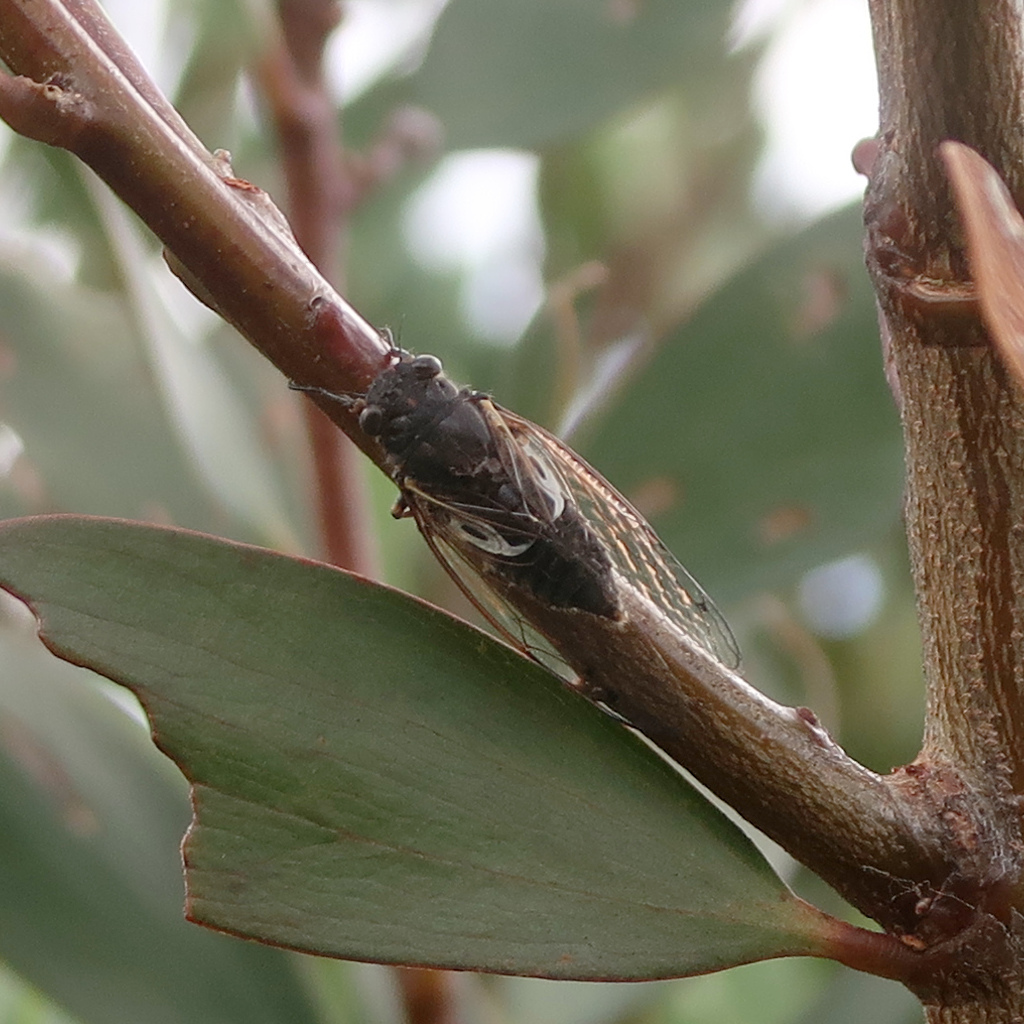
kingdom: Animalia
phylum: Arthropoda
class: Insecta
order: Hemiptera
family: Cicadidae
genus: Gelidea
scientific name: Gelidea torrida
